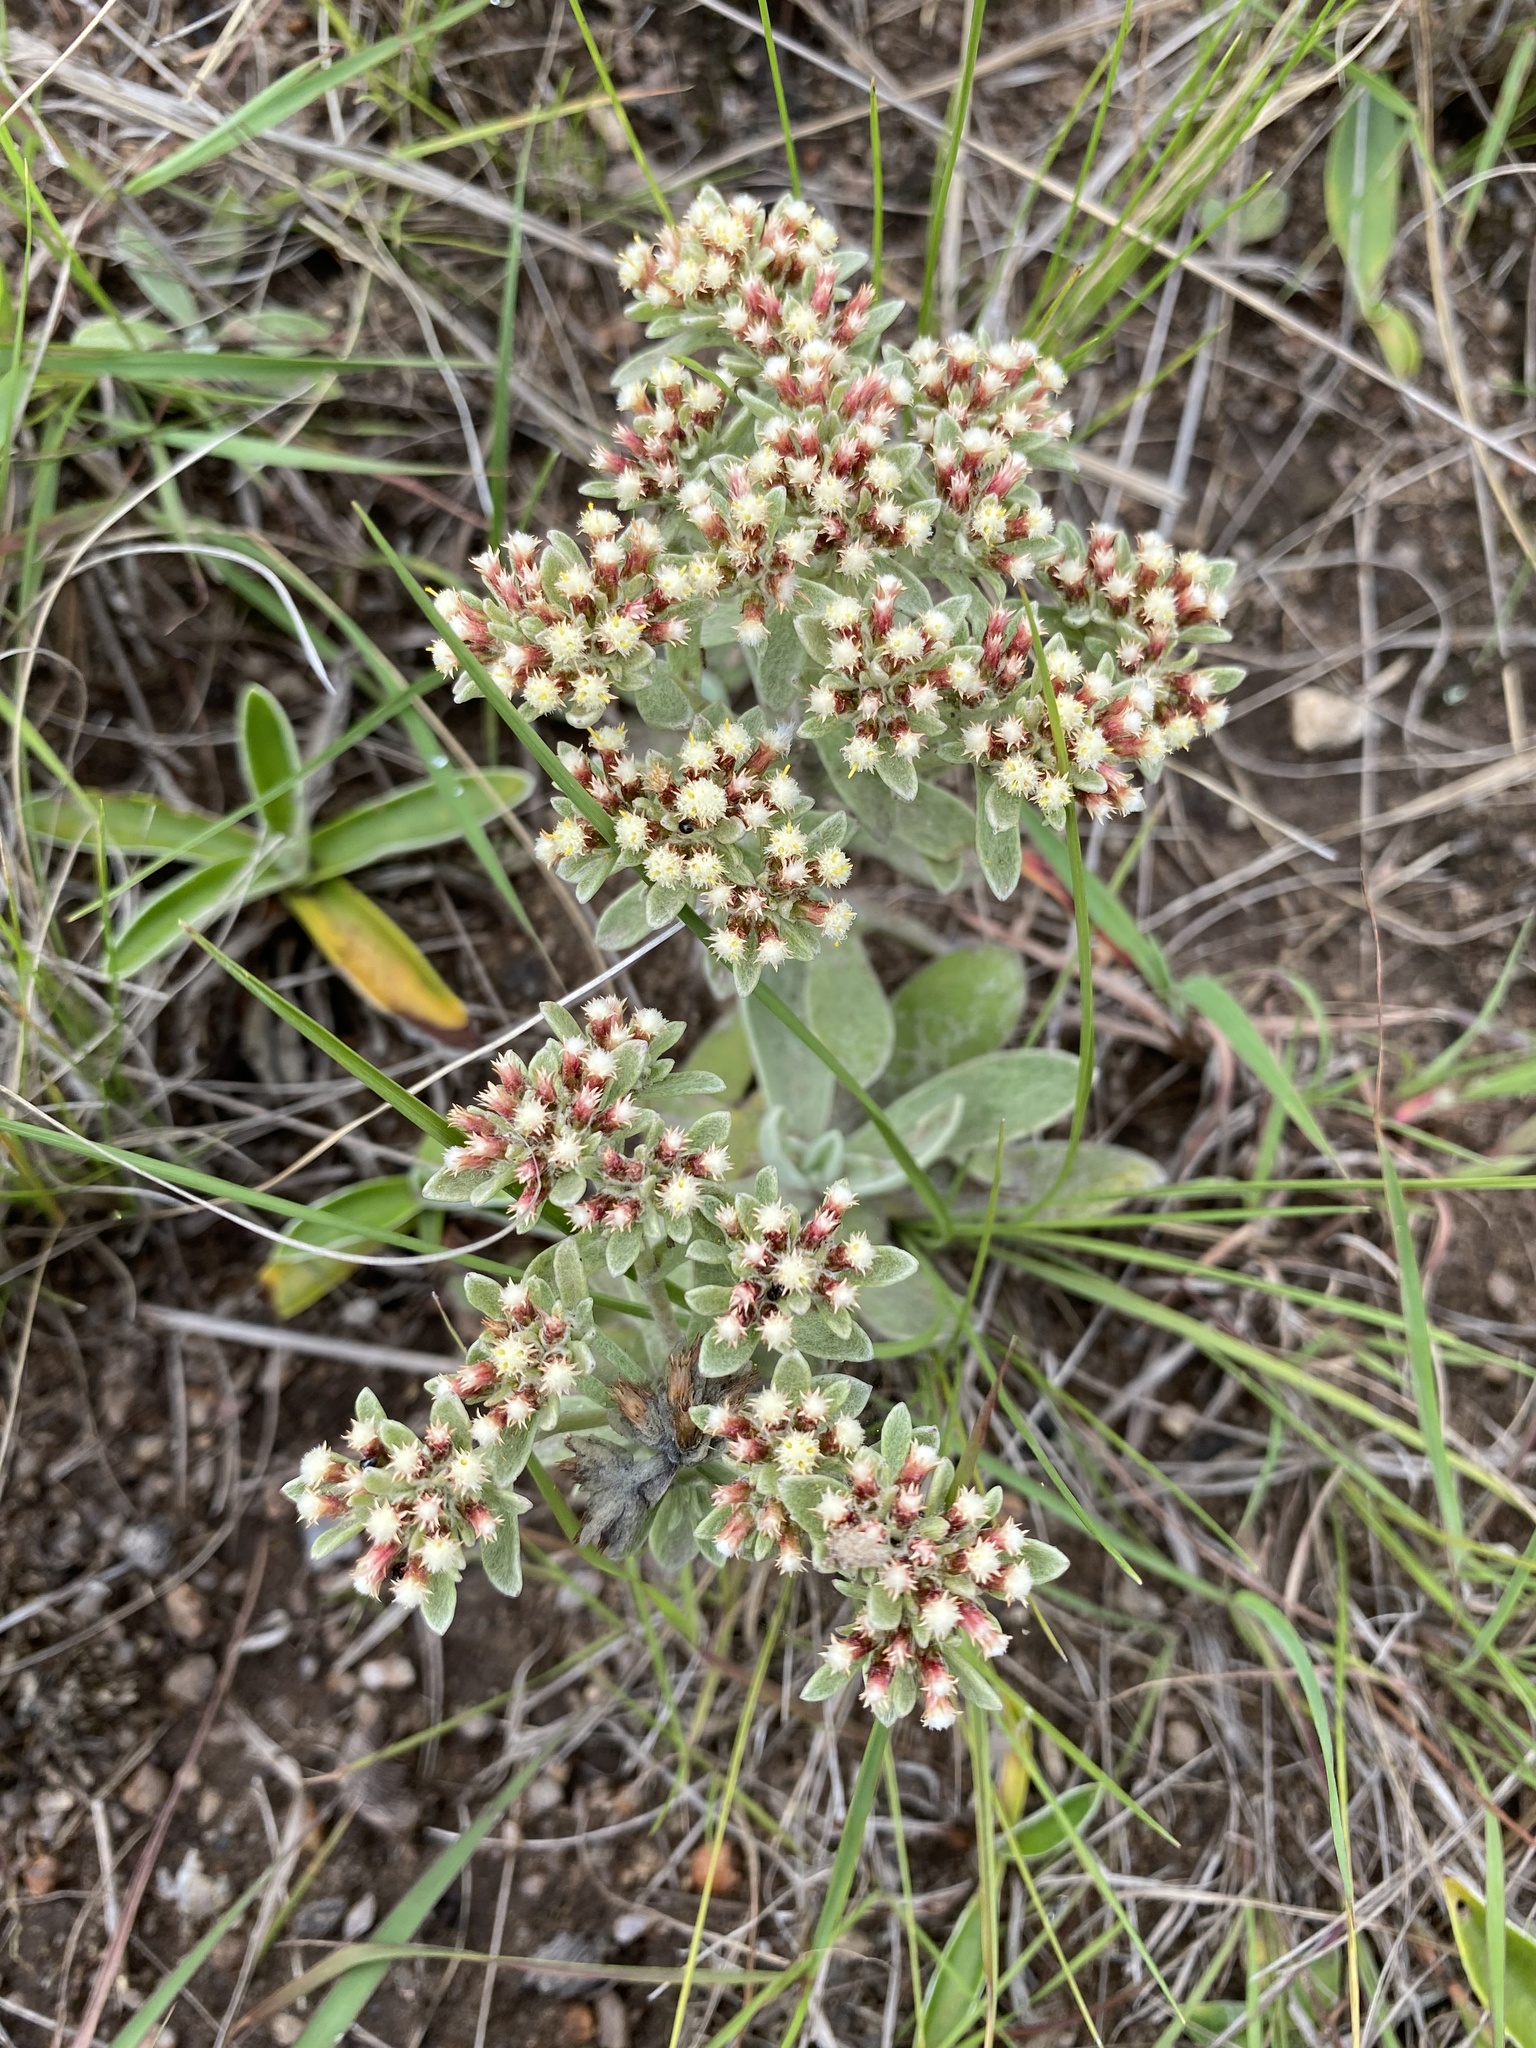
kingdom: Plantae
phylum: Tracheophyta
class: Magnoliopsida
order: Asterales
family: Asteraceae
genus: Helichrysum
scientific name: Helichrysum spiralepis
